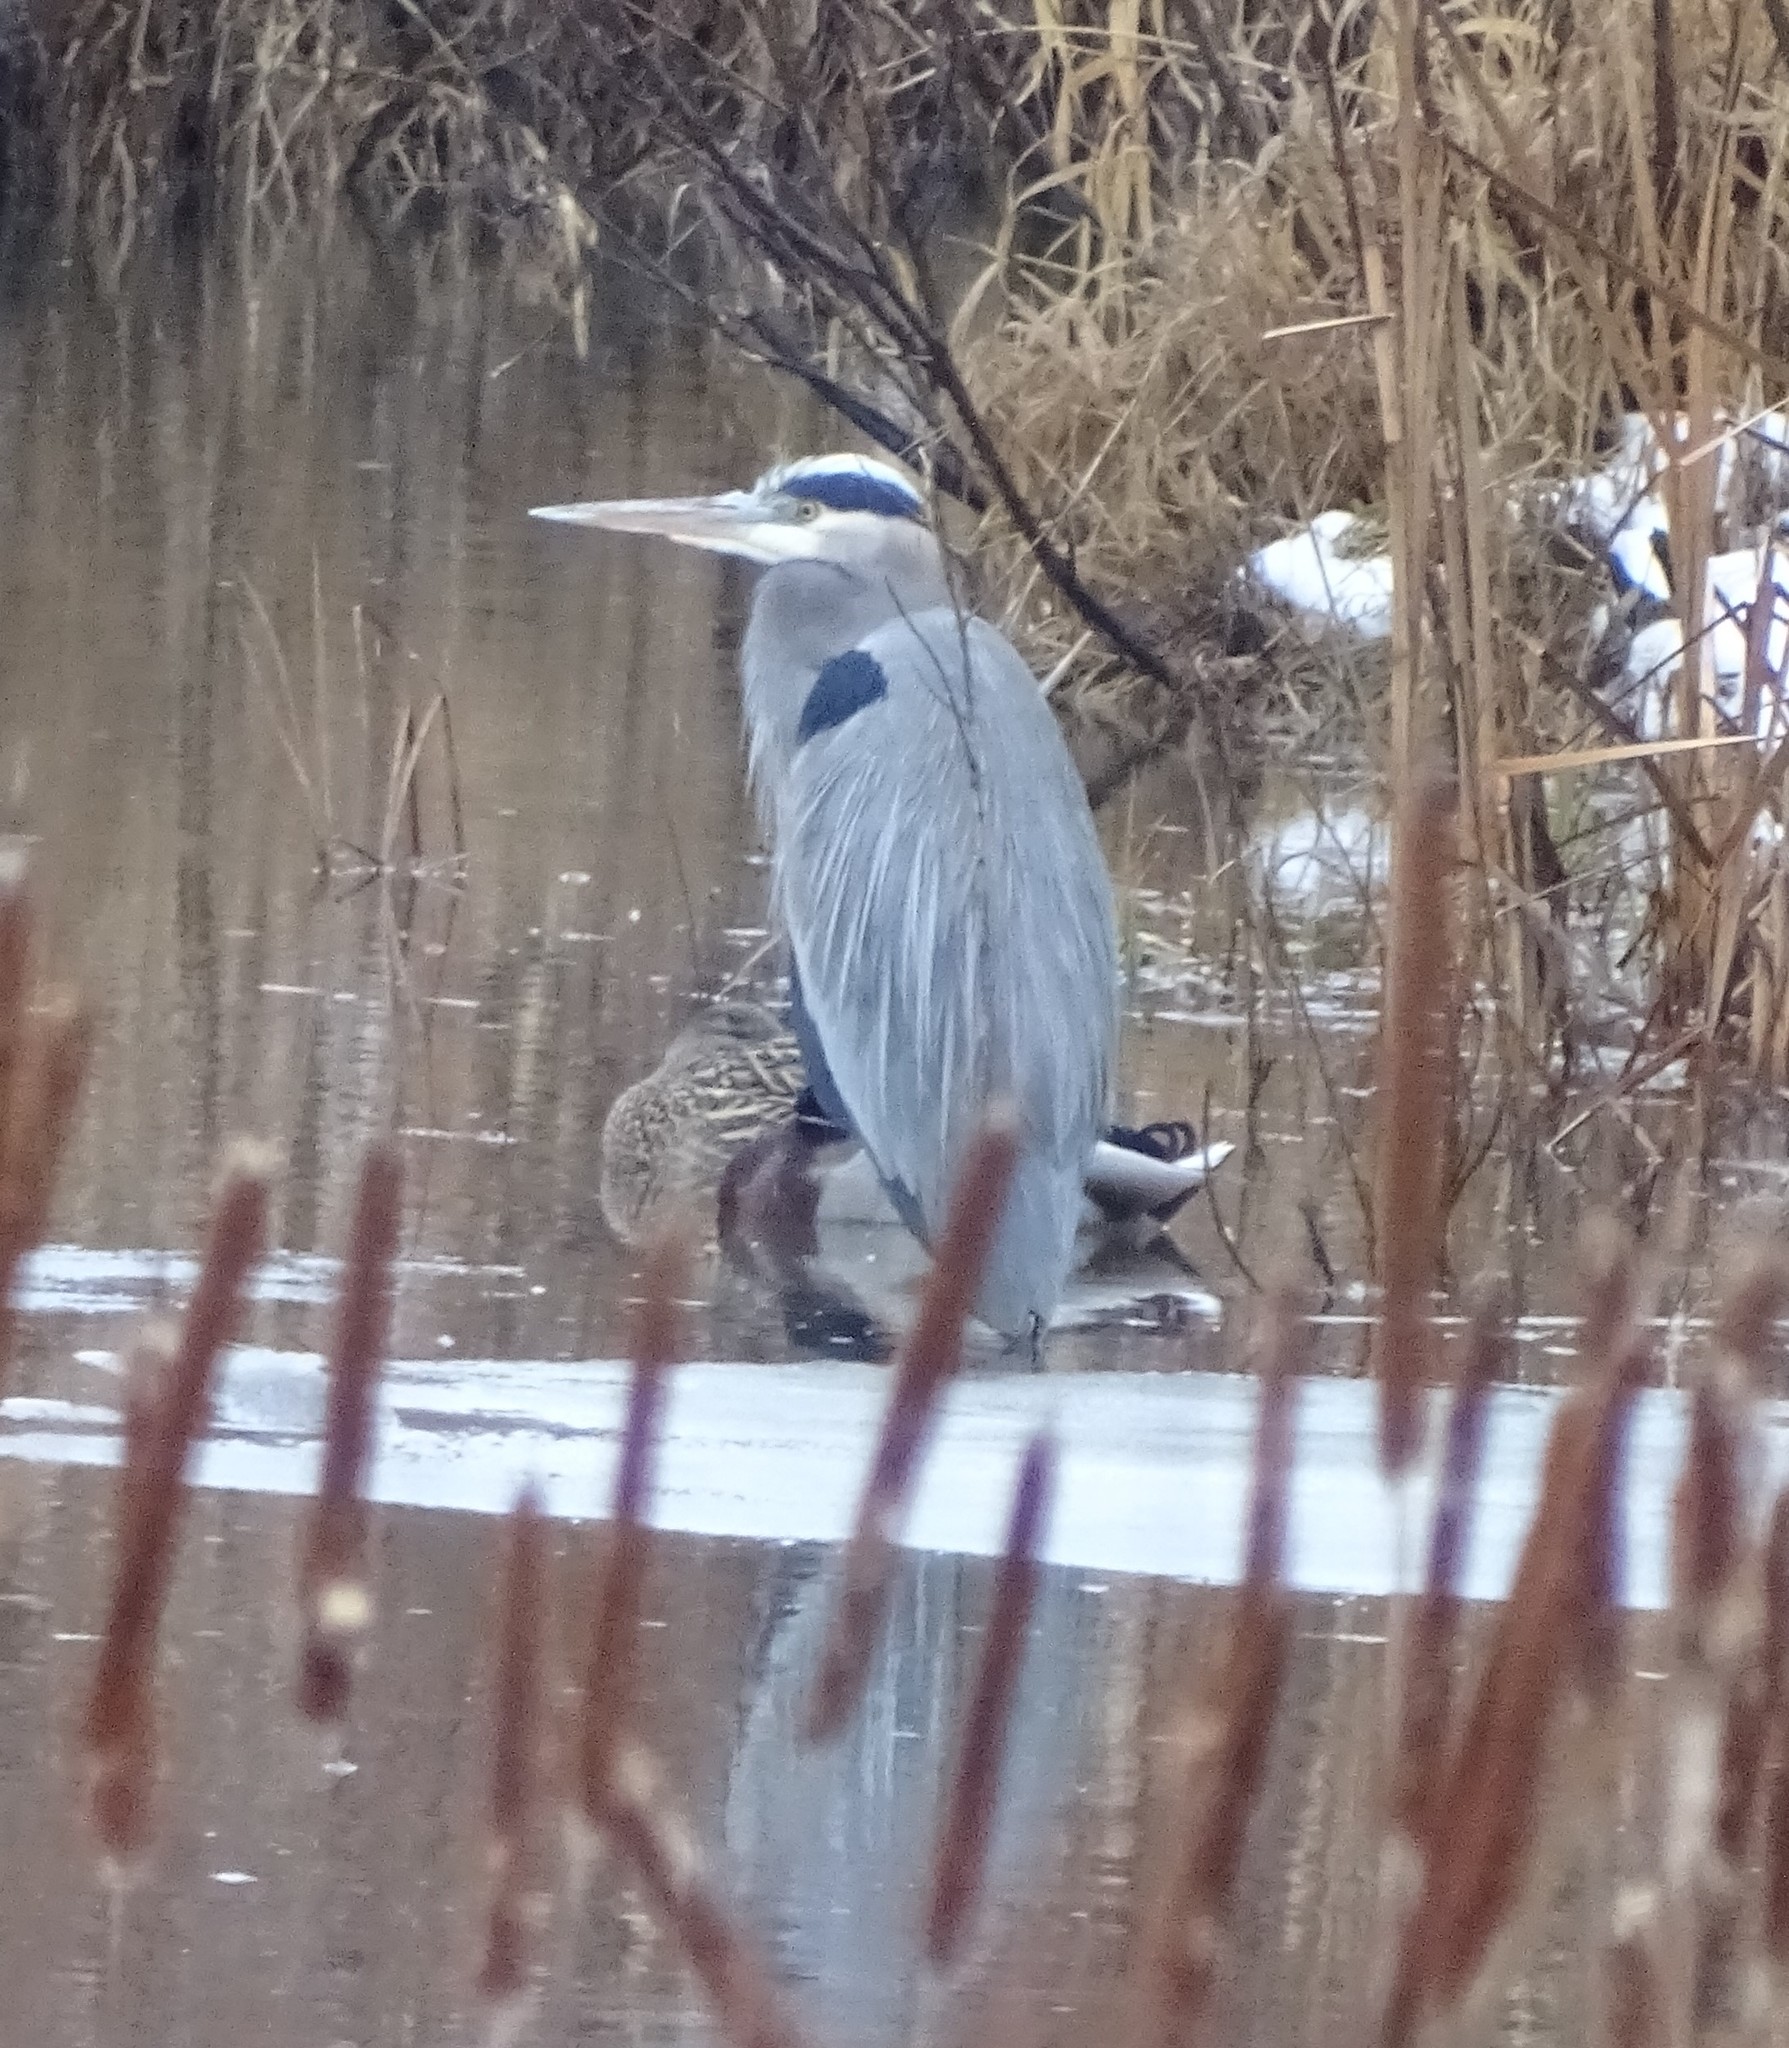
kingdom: Animalia
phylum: Chordata
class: Aves
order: Pelecaniformes
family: Ardeidae
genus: Ardea
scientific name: Ardea herodias
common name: Great blue heron
